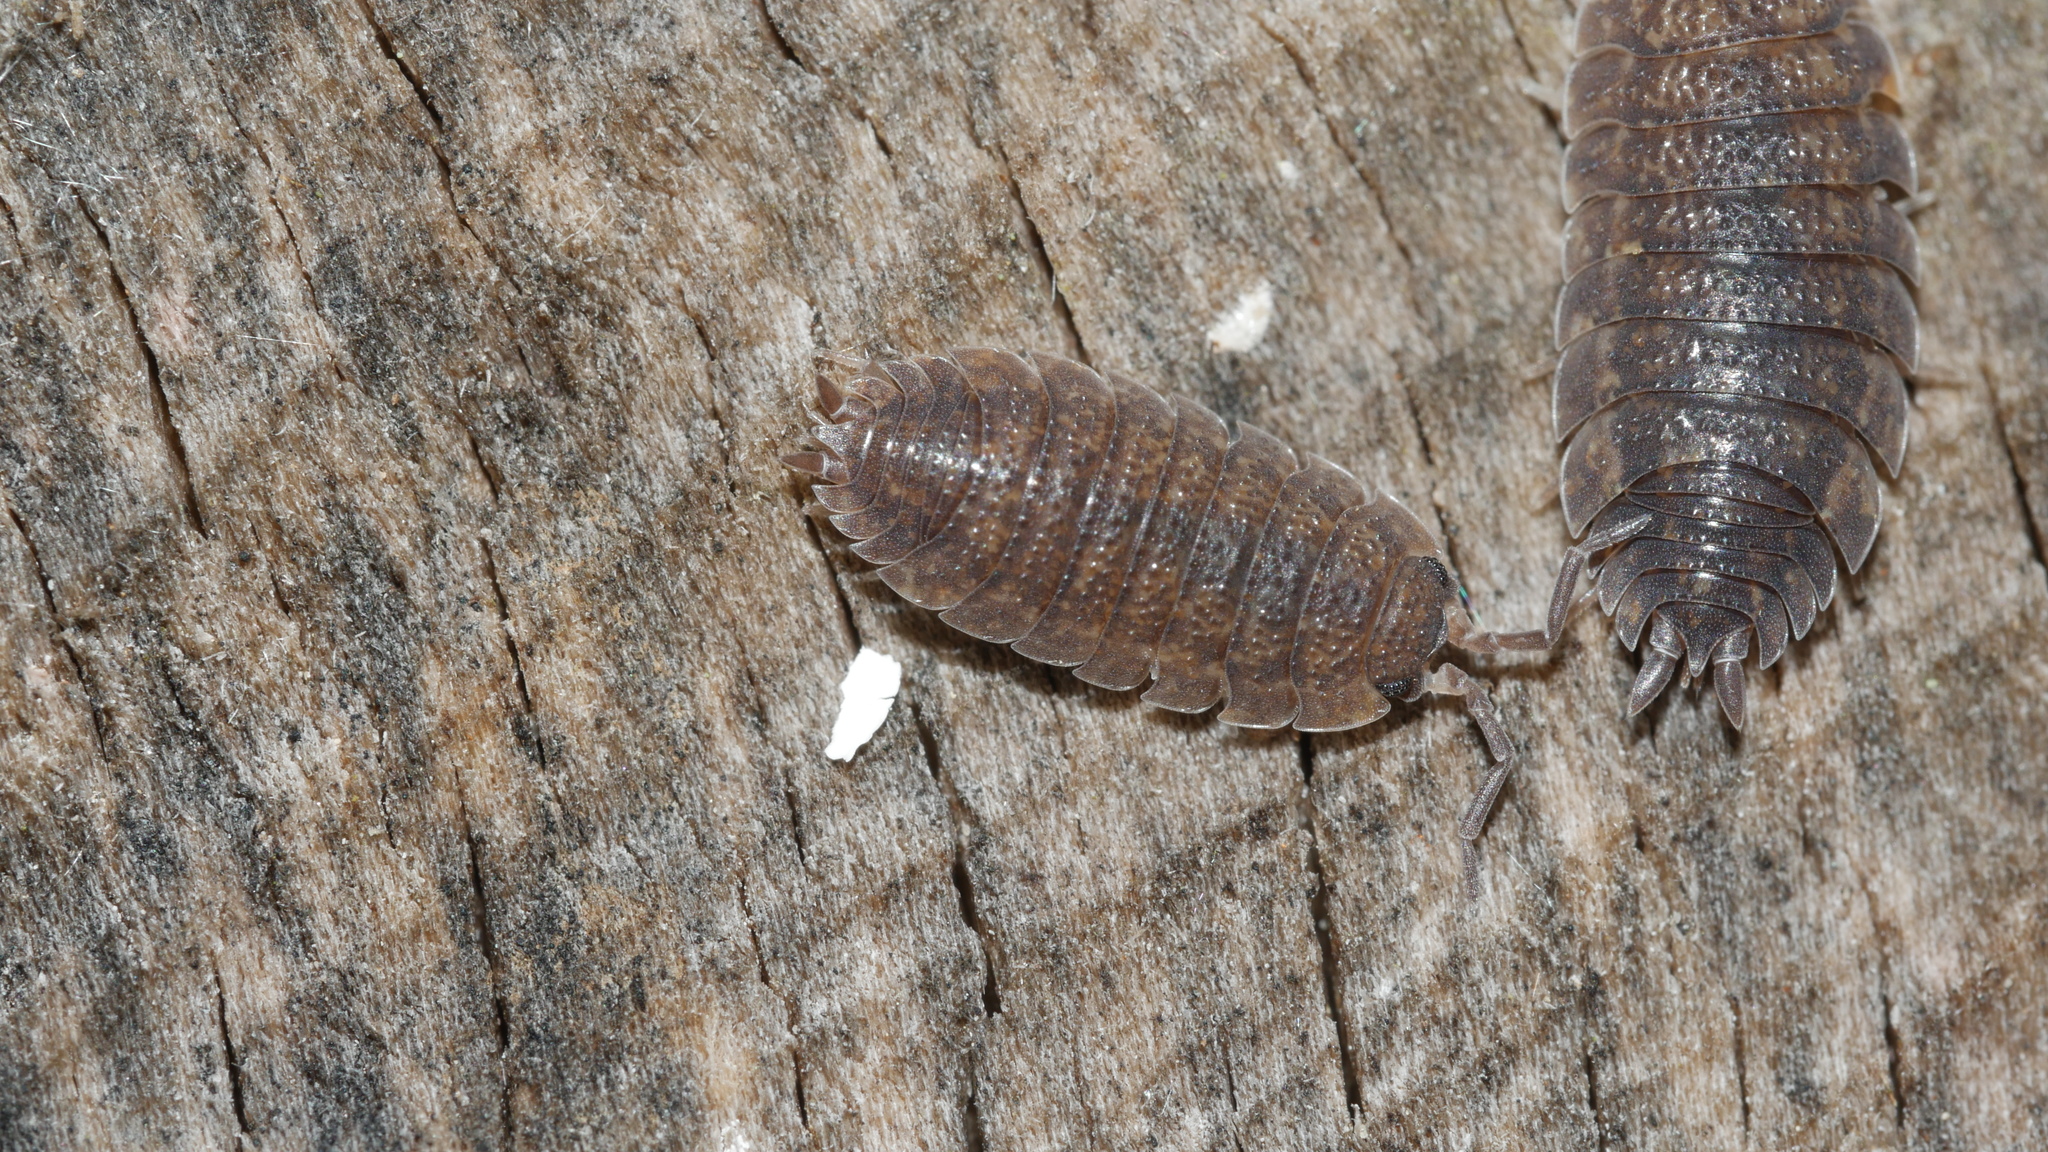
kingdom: Animalia
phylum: Arthropoda
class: Malacostraca
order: Isopoda
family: Porcellionidae
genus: Porcellio
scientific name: Porcellio scaber
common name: Common rough woodlouse
